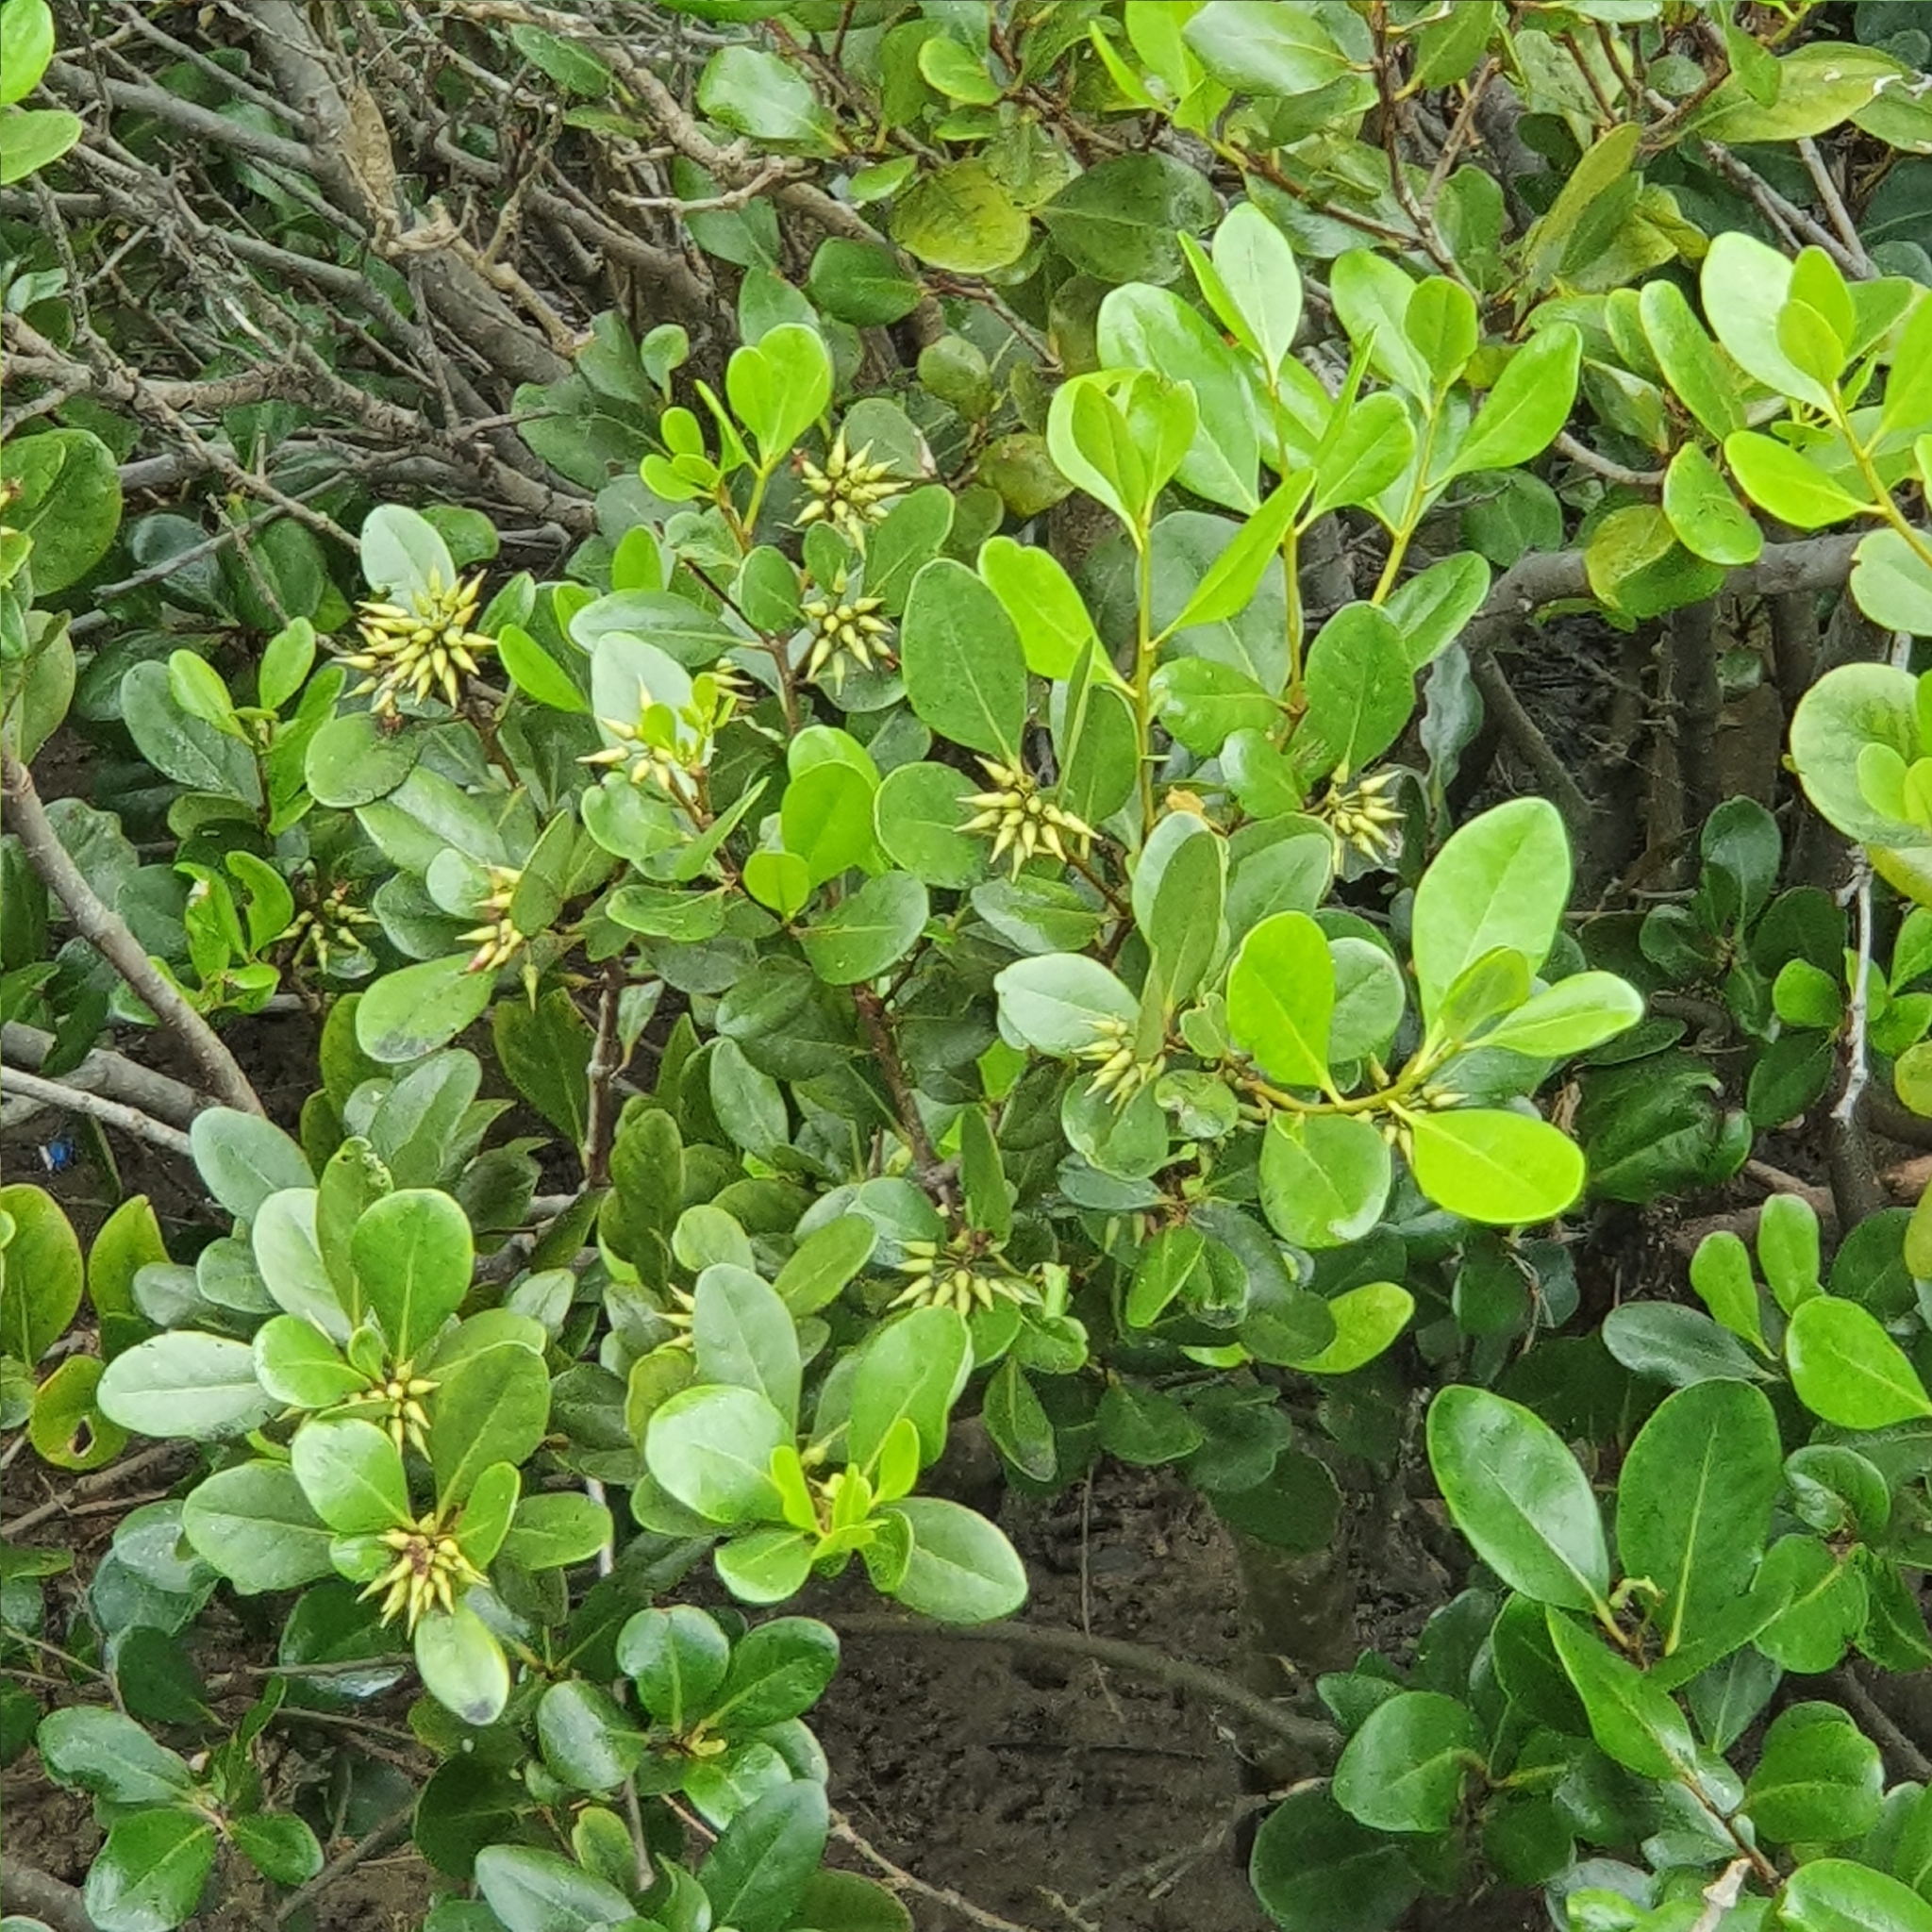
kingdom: Plantae
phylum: Tracheophyta
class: Magnoliopsida
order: Ericales
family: Primulaceae
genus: Aegiceras
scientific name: Aegiceras corniculatum
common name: River mangrove
